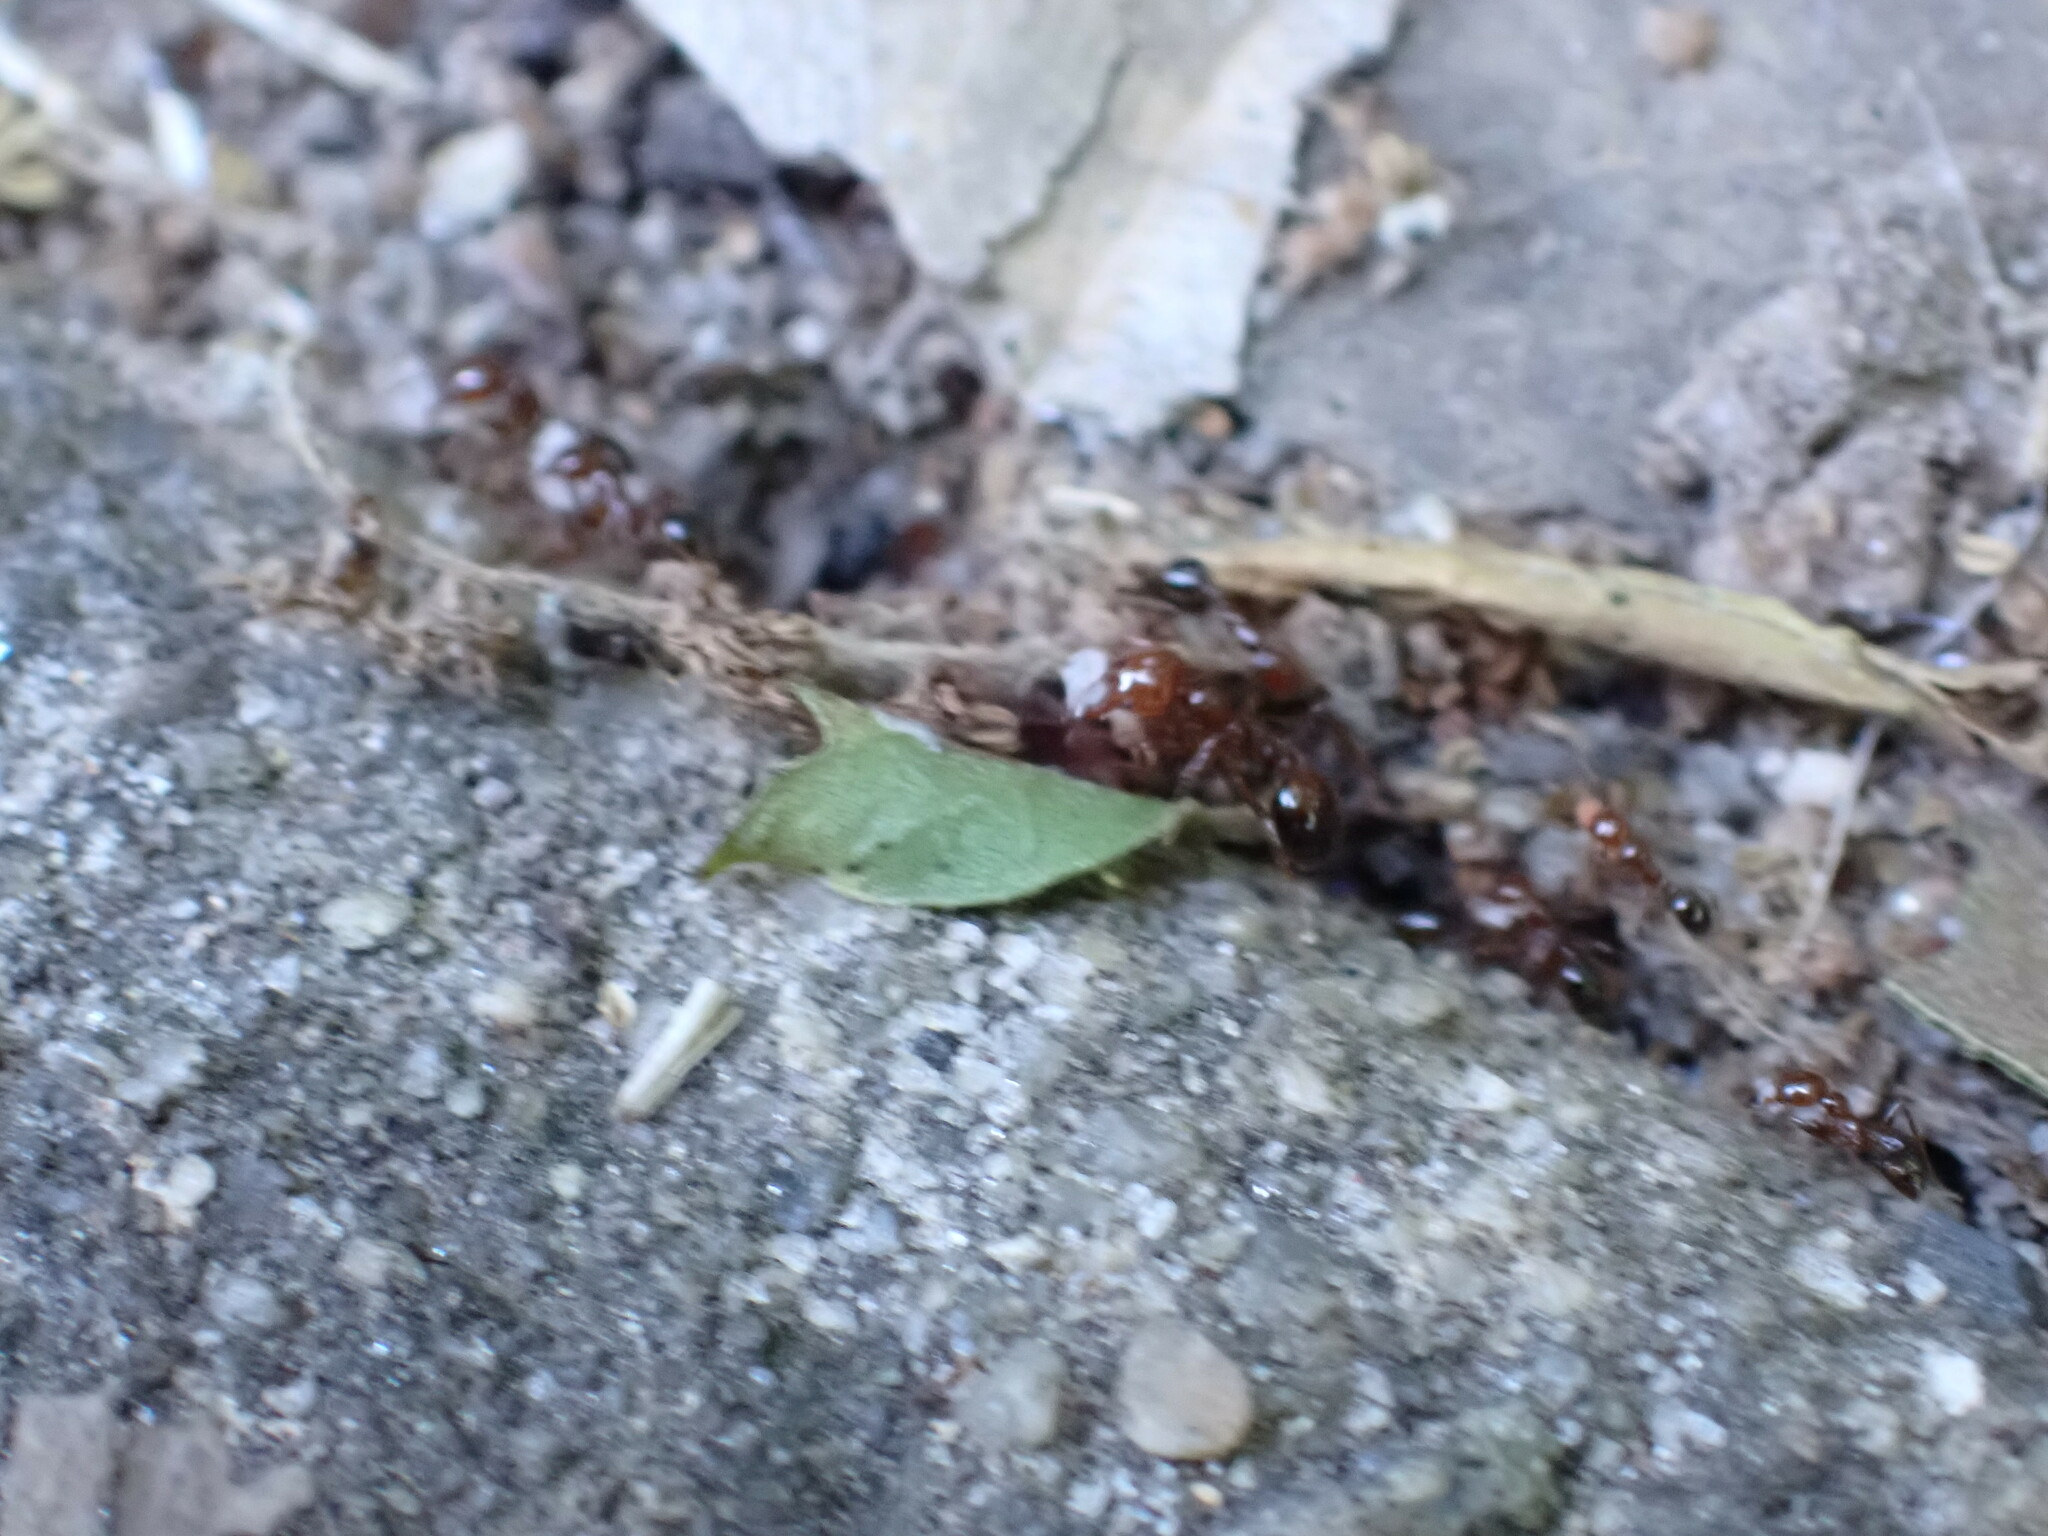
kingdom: Animalia
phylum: Arthropoda
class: Insecta
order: Hymenoptera
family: Formicidae
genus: Solenopsis
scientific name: Solenopsis invicta
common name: Red imported fire ant
